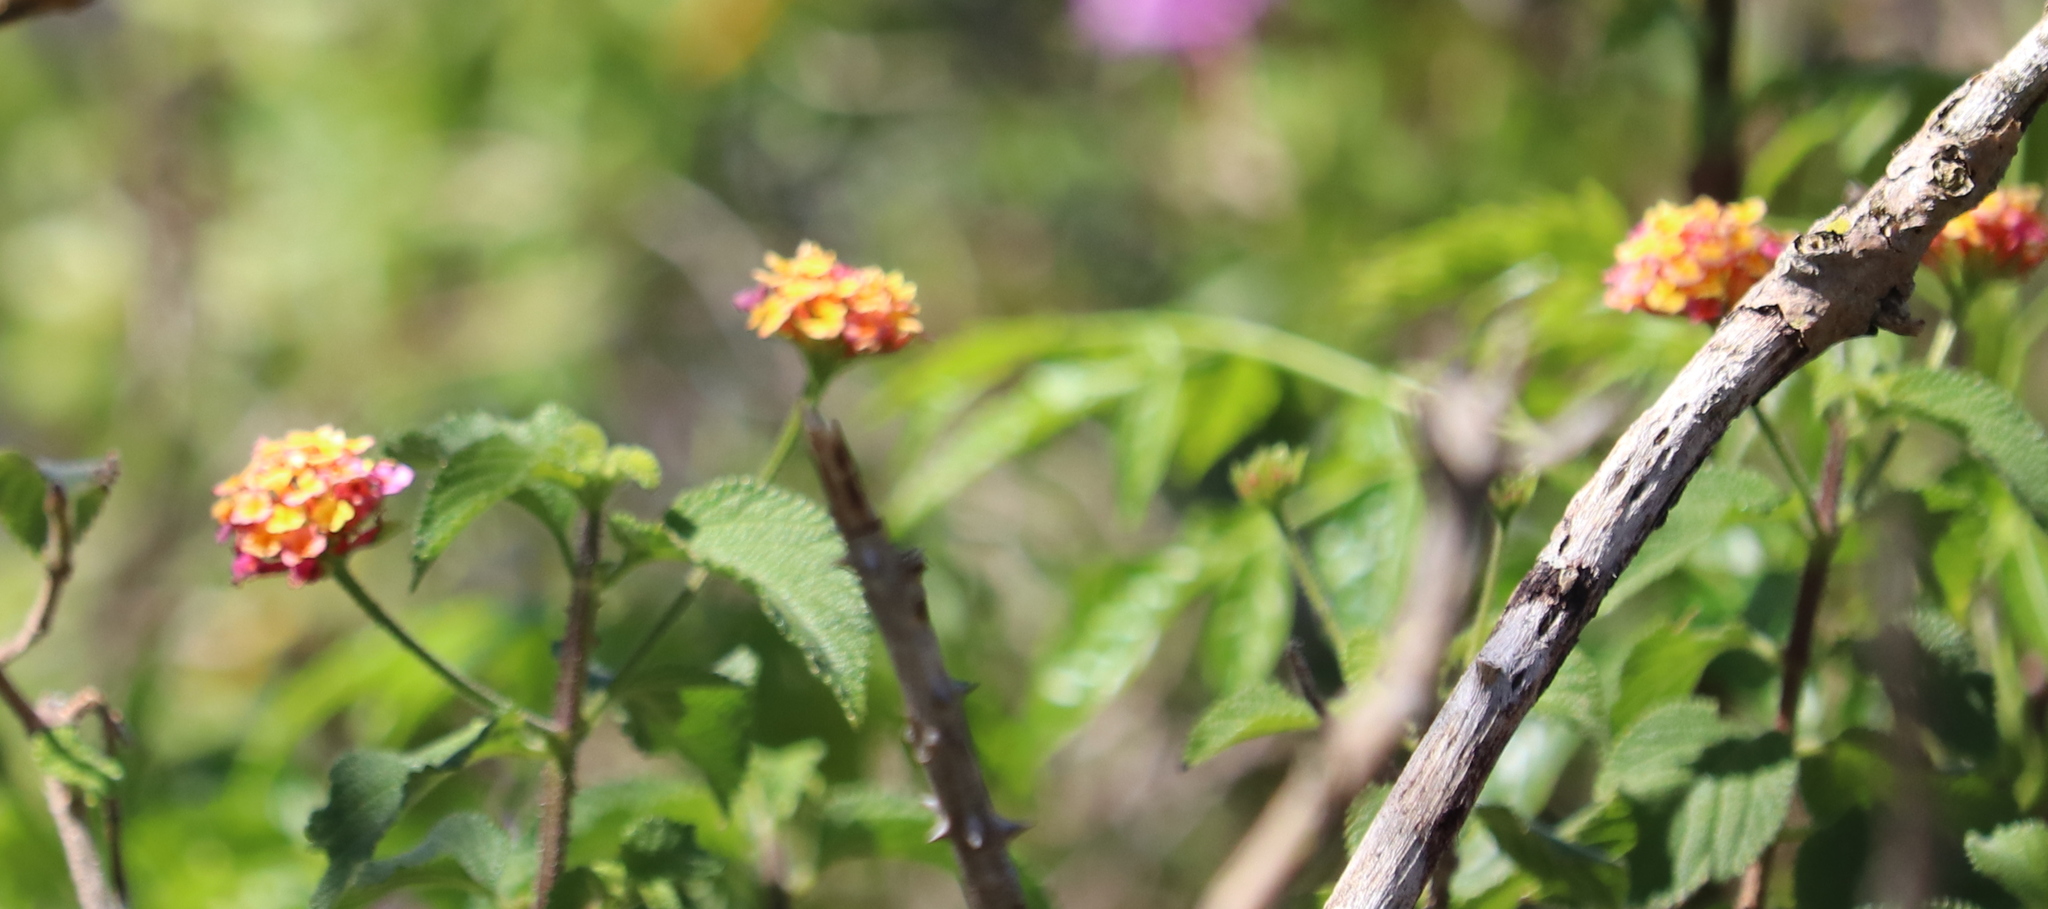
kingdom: Plantae
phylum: Tracheophyta
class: Magnoliopsida
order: Lamiales
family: Verbenaceae
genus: Lantana
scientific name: Lantana camara
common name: Lantana
